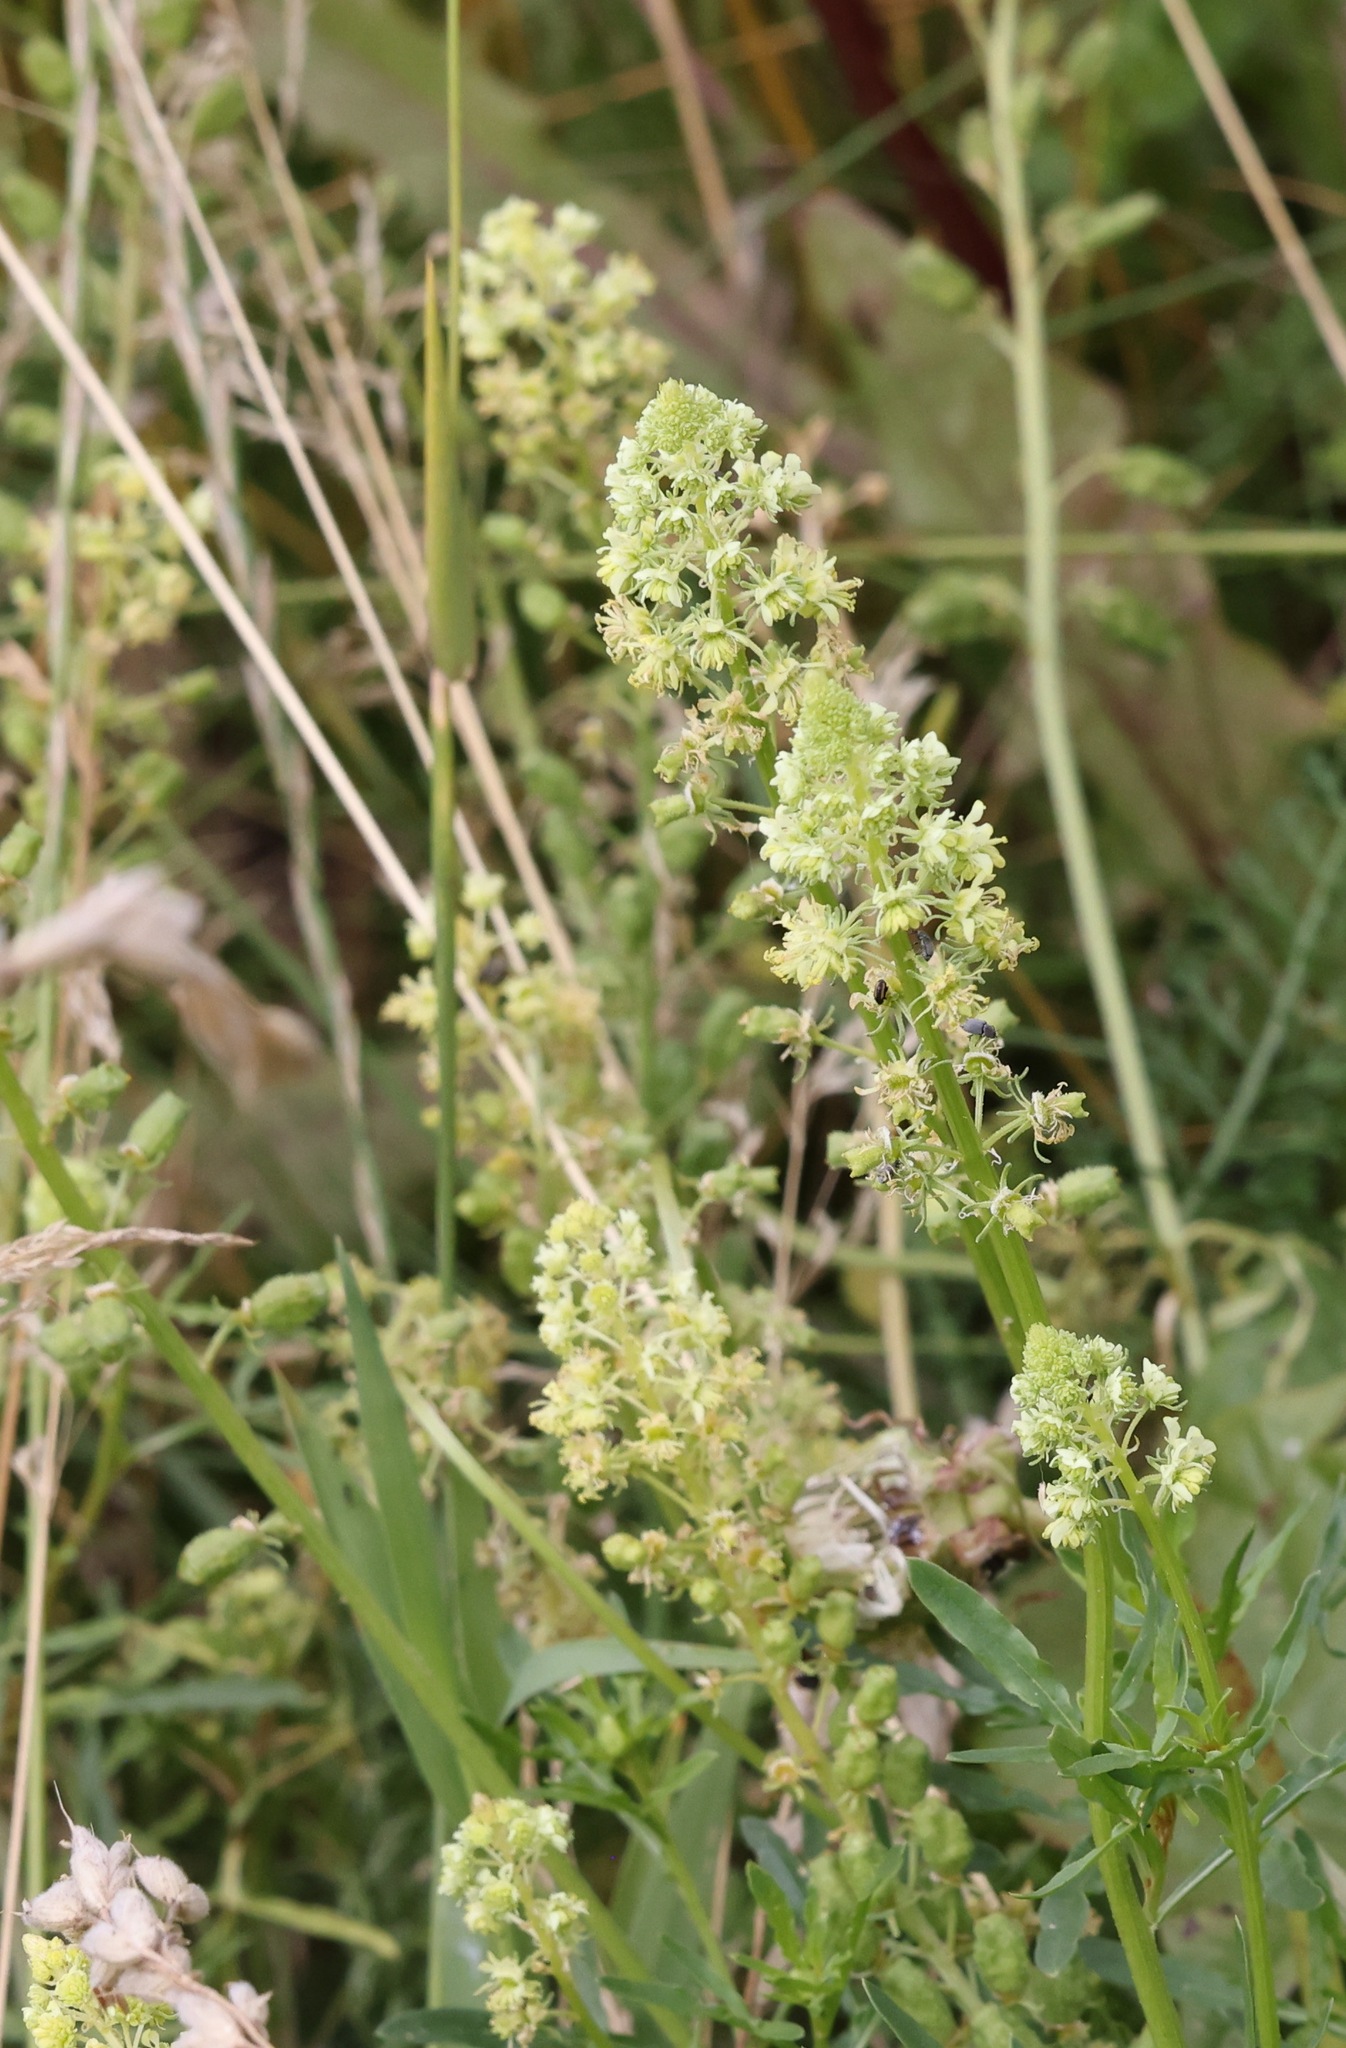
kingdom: Plantae
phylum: Tracheophyta
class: Magnoliopsida
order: Brassicales
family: Resedaceae
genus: Reseda
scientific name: Reseda lutea
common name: Wild mignonette
